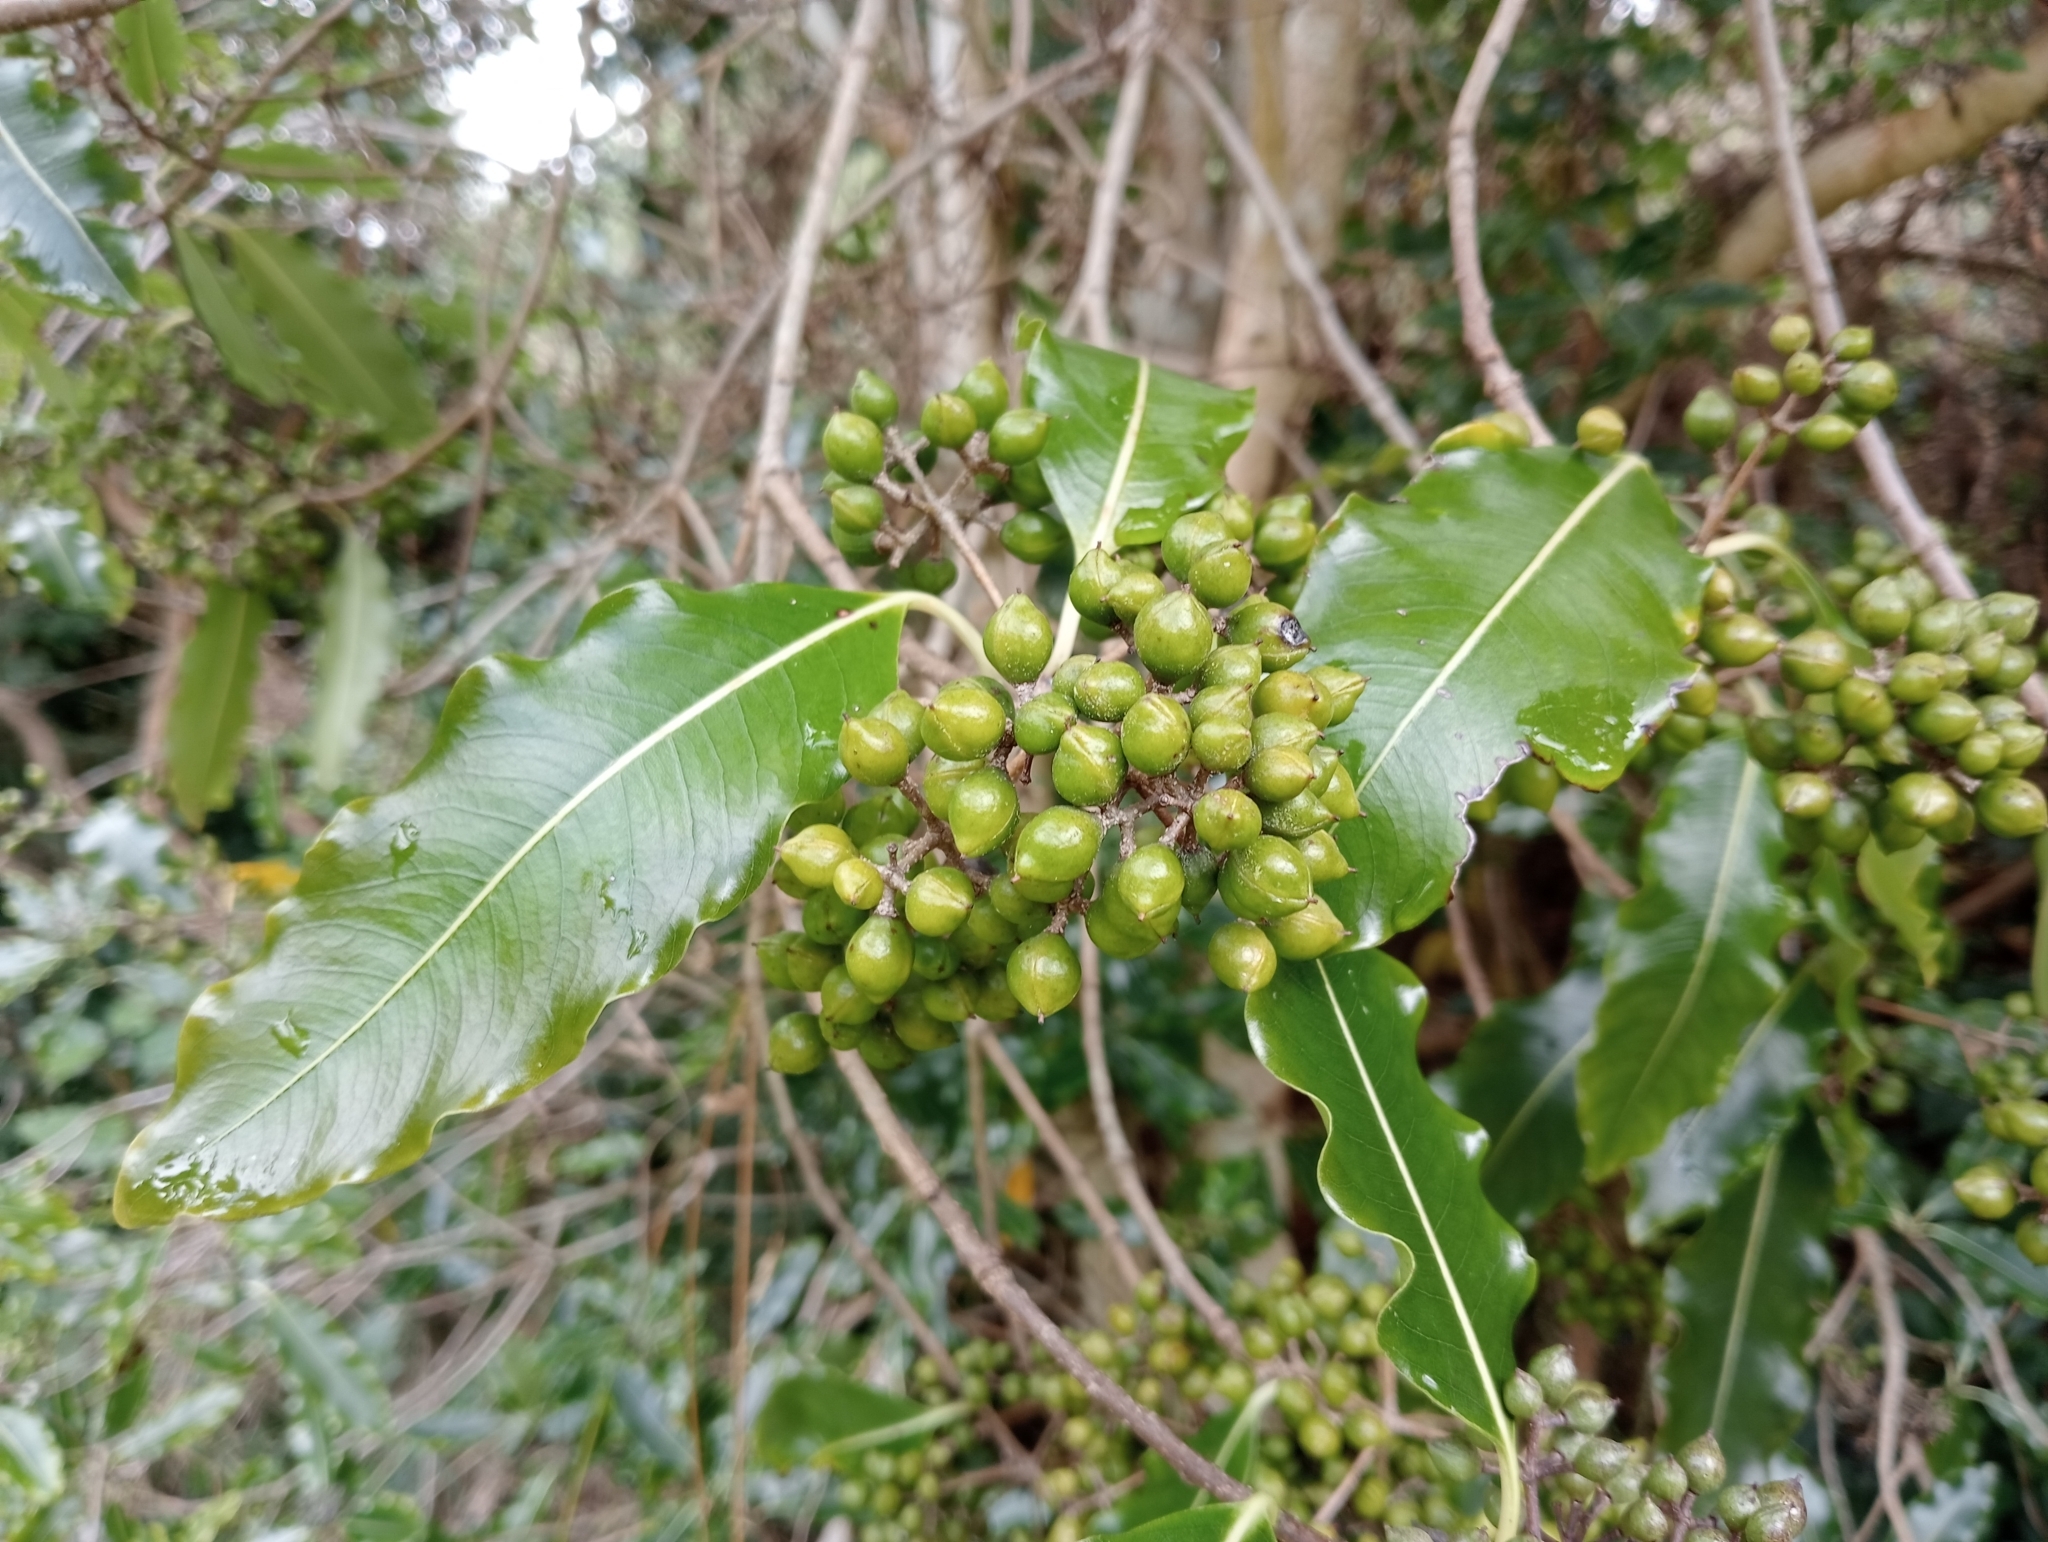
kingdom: Plantae
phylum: Tracheophyta
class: Magnoliopsida
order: Apiales
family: Pittosporaceae
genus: Pittosporum
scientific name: Pittosporum eugenioides
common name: Lemonwood
